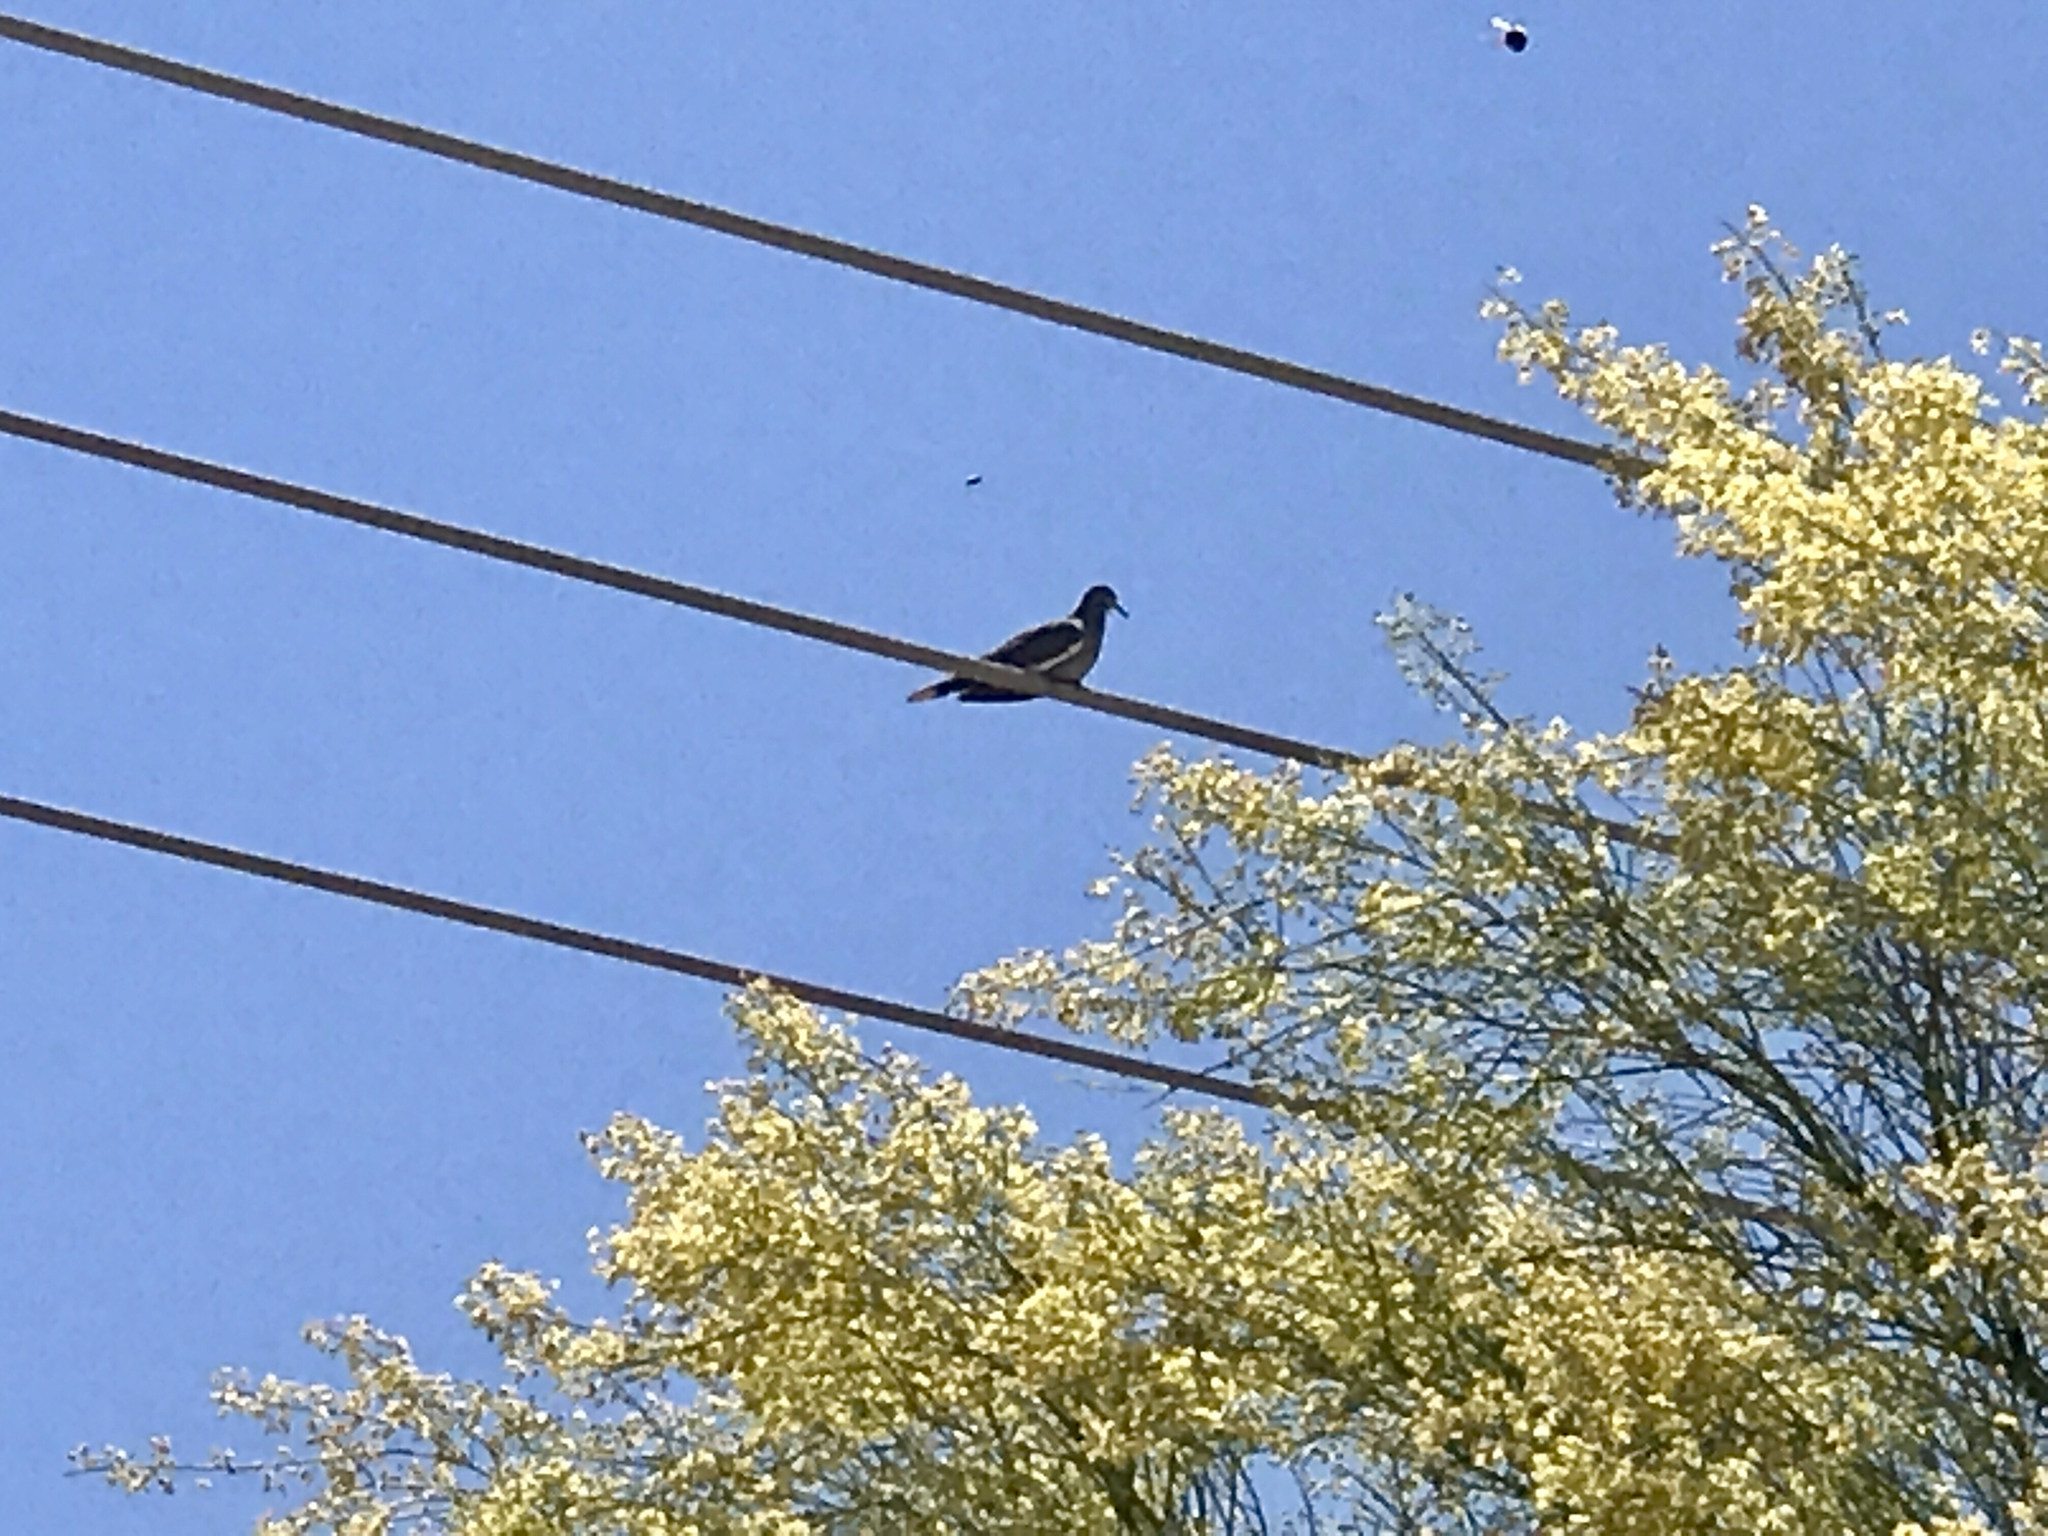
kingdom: Plantae
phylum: Tracheophyta
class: Magnoliopsida
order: Fabales
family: Fabaceae
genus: Parkinsonia
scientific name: Parkinsonia microphylla
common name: Yellow paloverde
